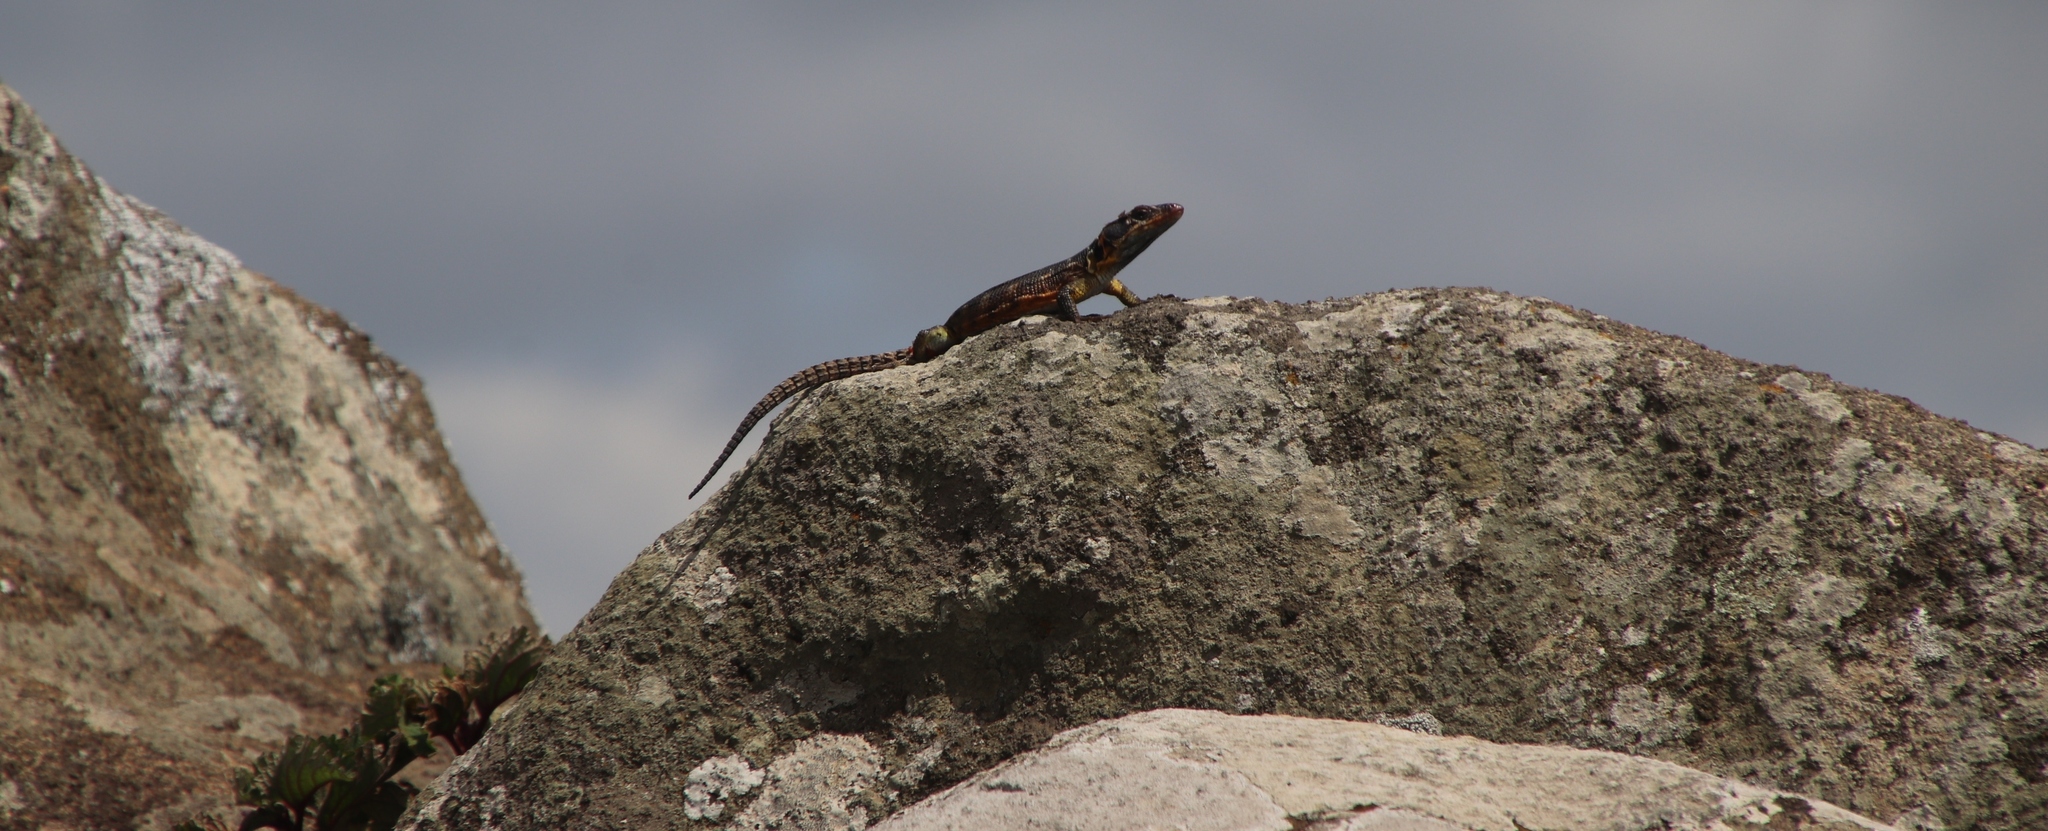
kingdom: Animalia
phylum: Chordata
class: Squamata
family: Cordylidae
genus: Pseudocordylus
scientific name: Pseudocordylus melanotus
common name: Highveld crag lizard
